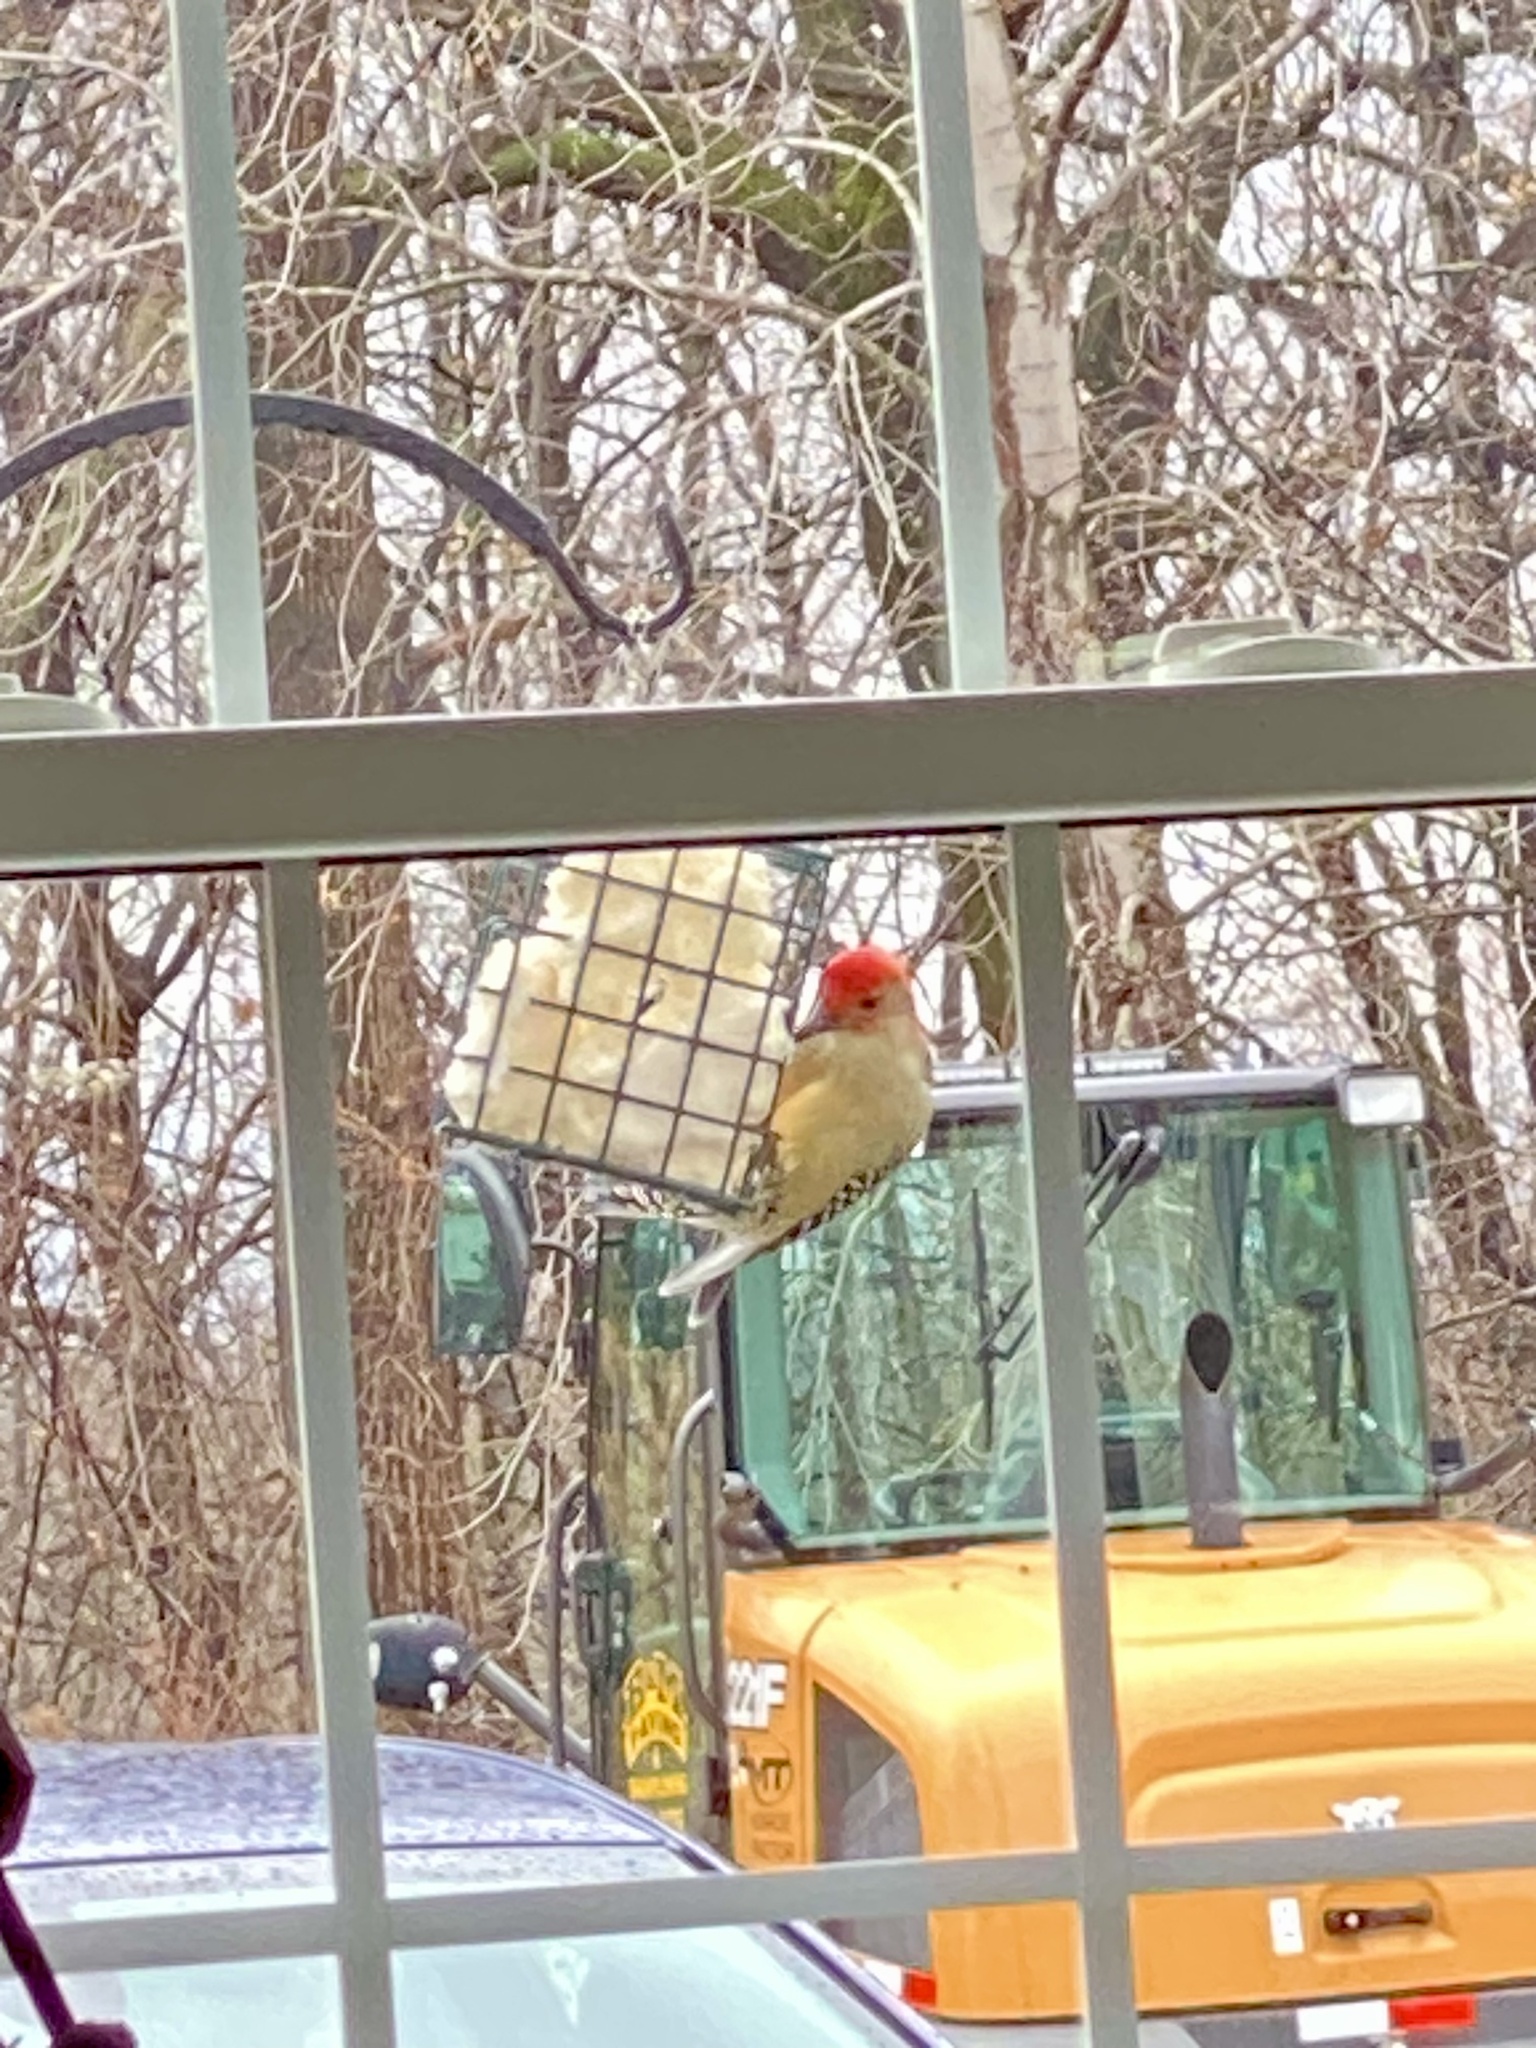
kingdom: Animalia
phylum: Chordata
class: Aves
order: Piciformes
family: Picidae
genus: Melanerpes
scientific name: Melanerpes carolinus
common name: Red-bellied woodpecker
